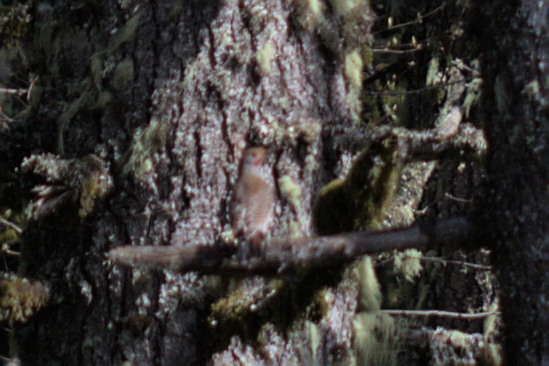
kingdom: Animalia
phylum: Chordata
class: Aves
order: Piciformes
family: Picidae
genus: Colaptes
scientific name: Colaptes auratus
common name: Northern flicker
